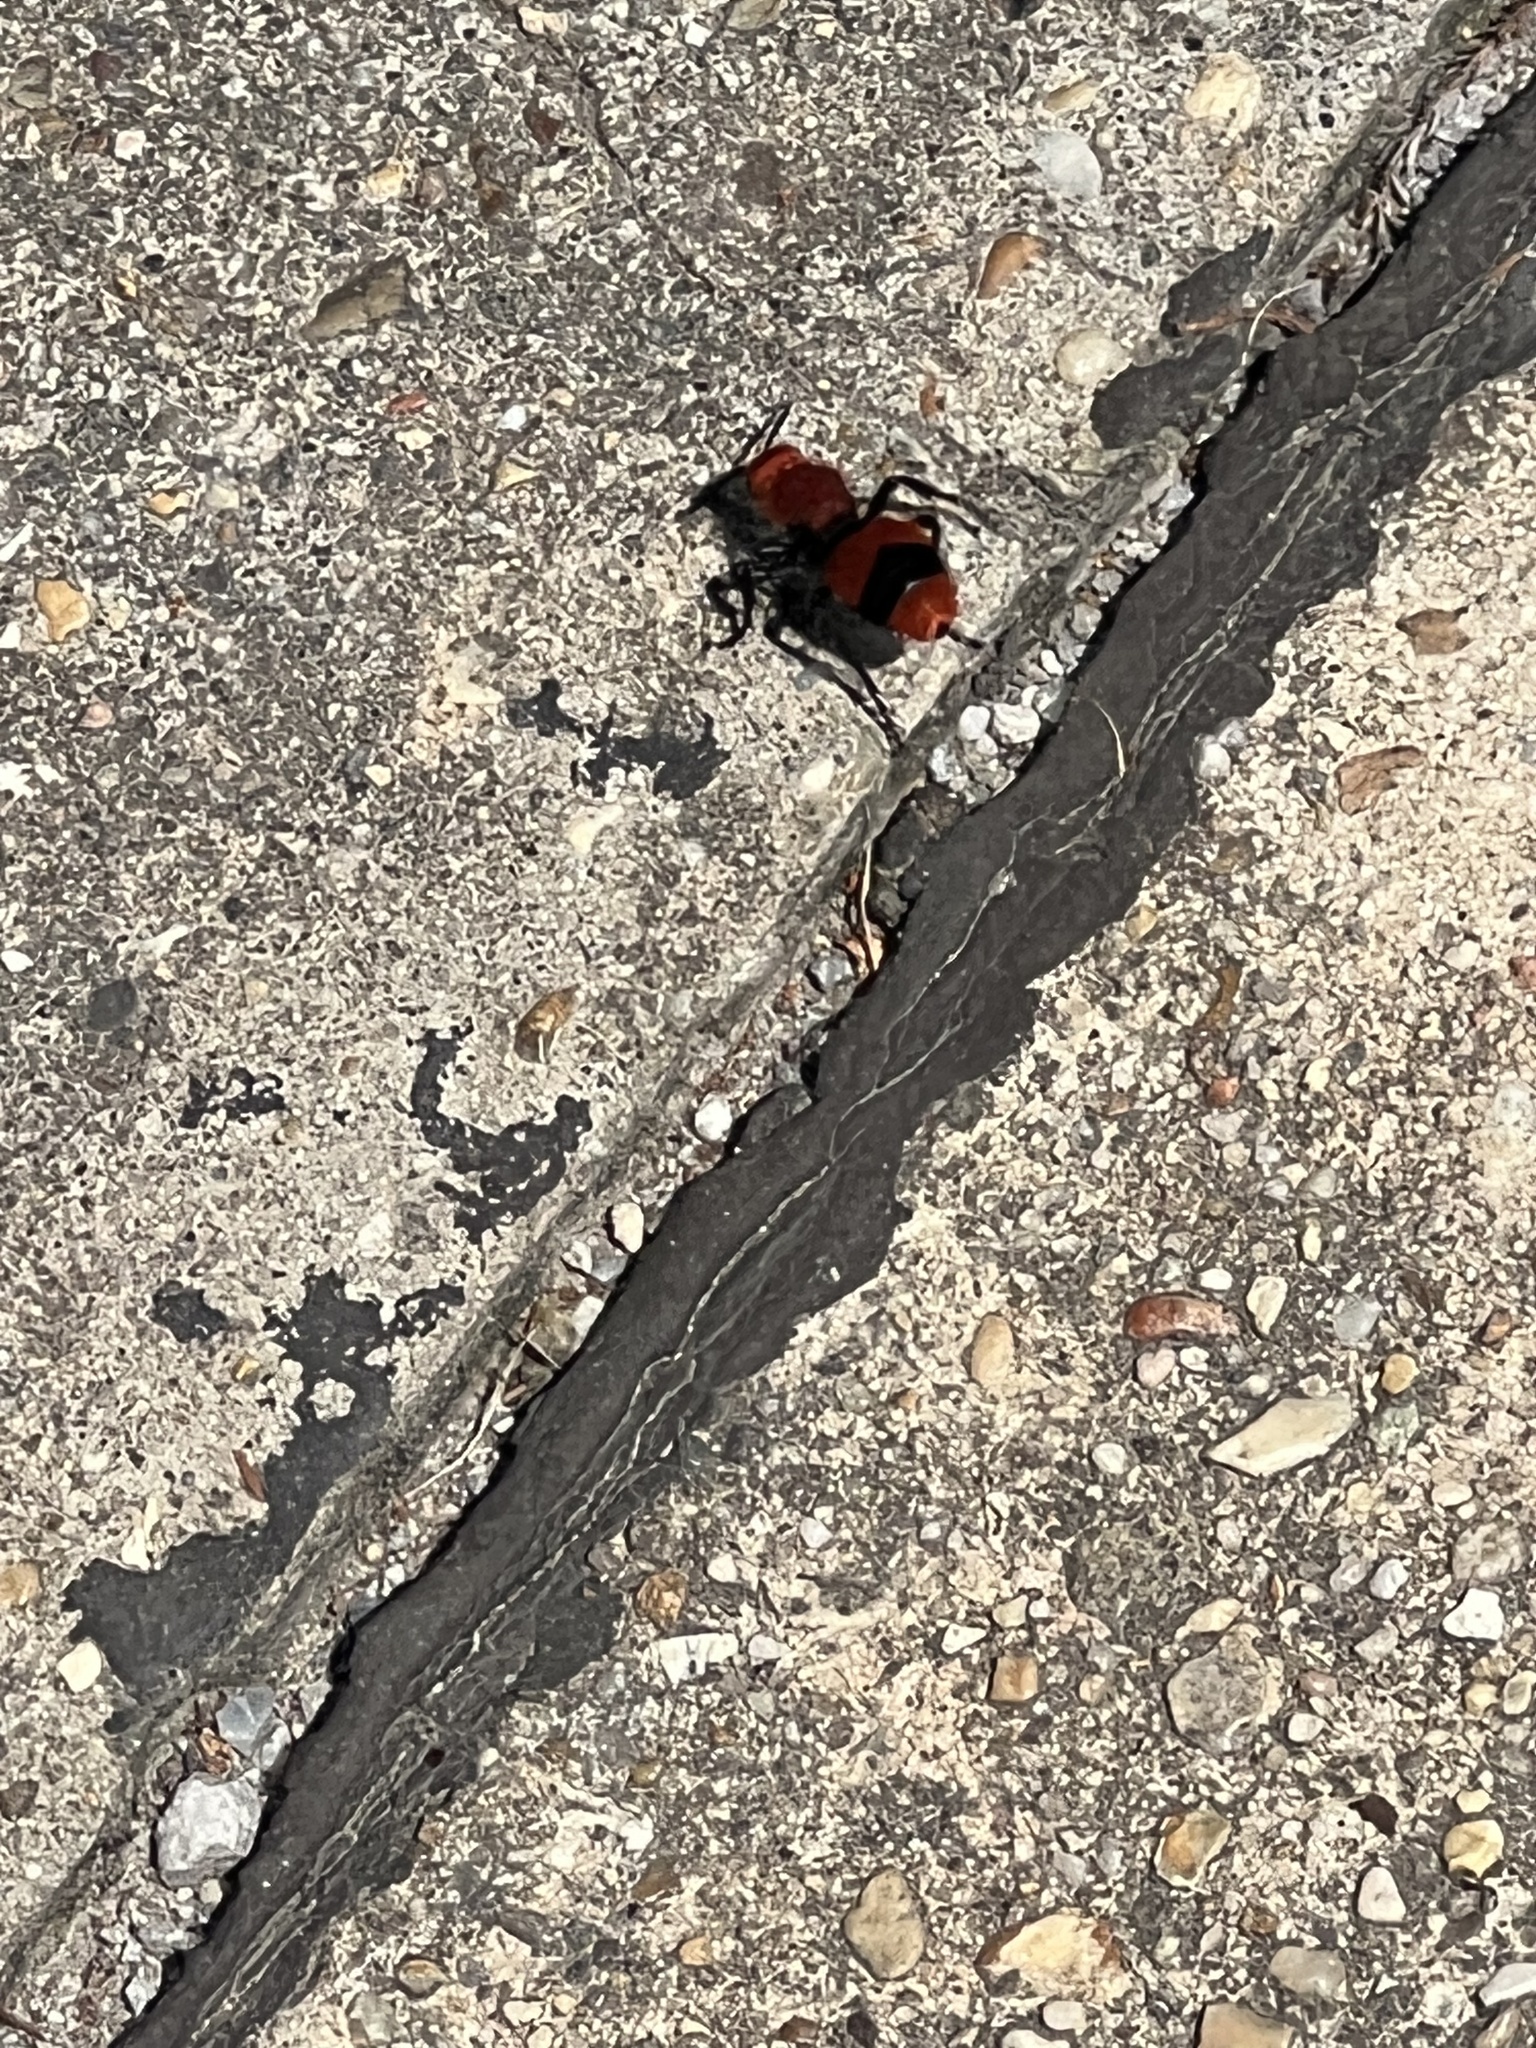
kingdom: Animalia
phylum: Arthropoda
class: Insecta
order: Hymenoptera
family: Mutillidae
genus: Dasymutilla
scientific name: Dasymutilla occidentalis
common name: Common eastern velvet ant
